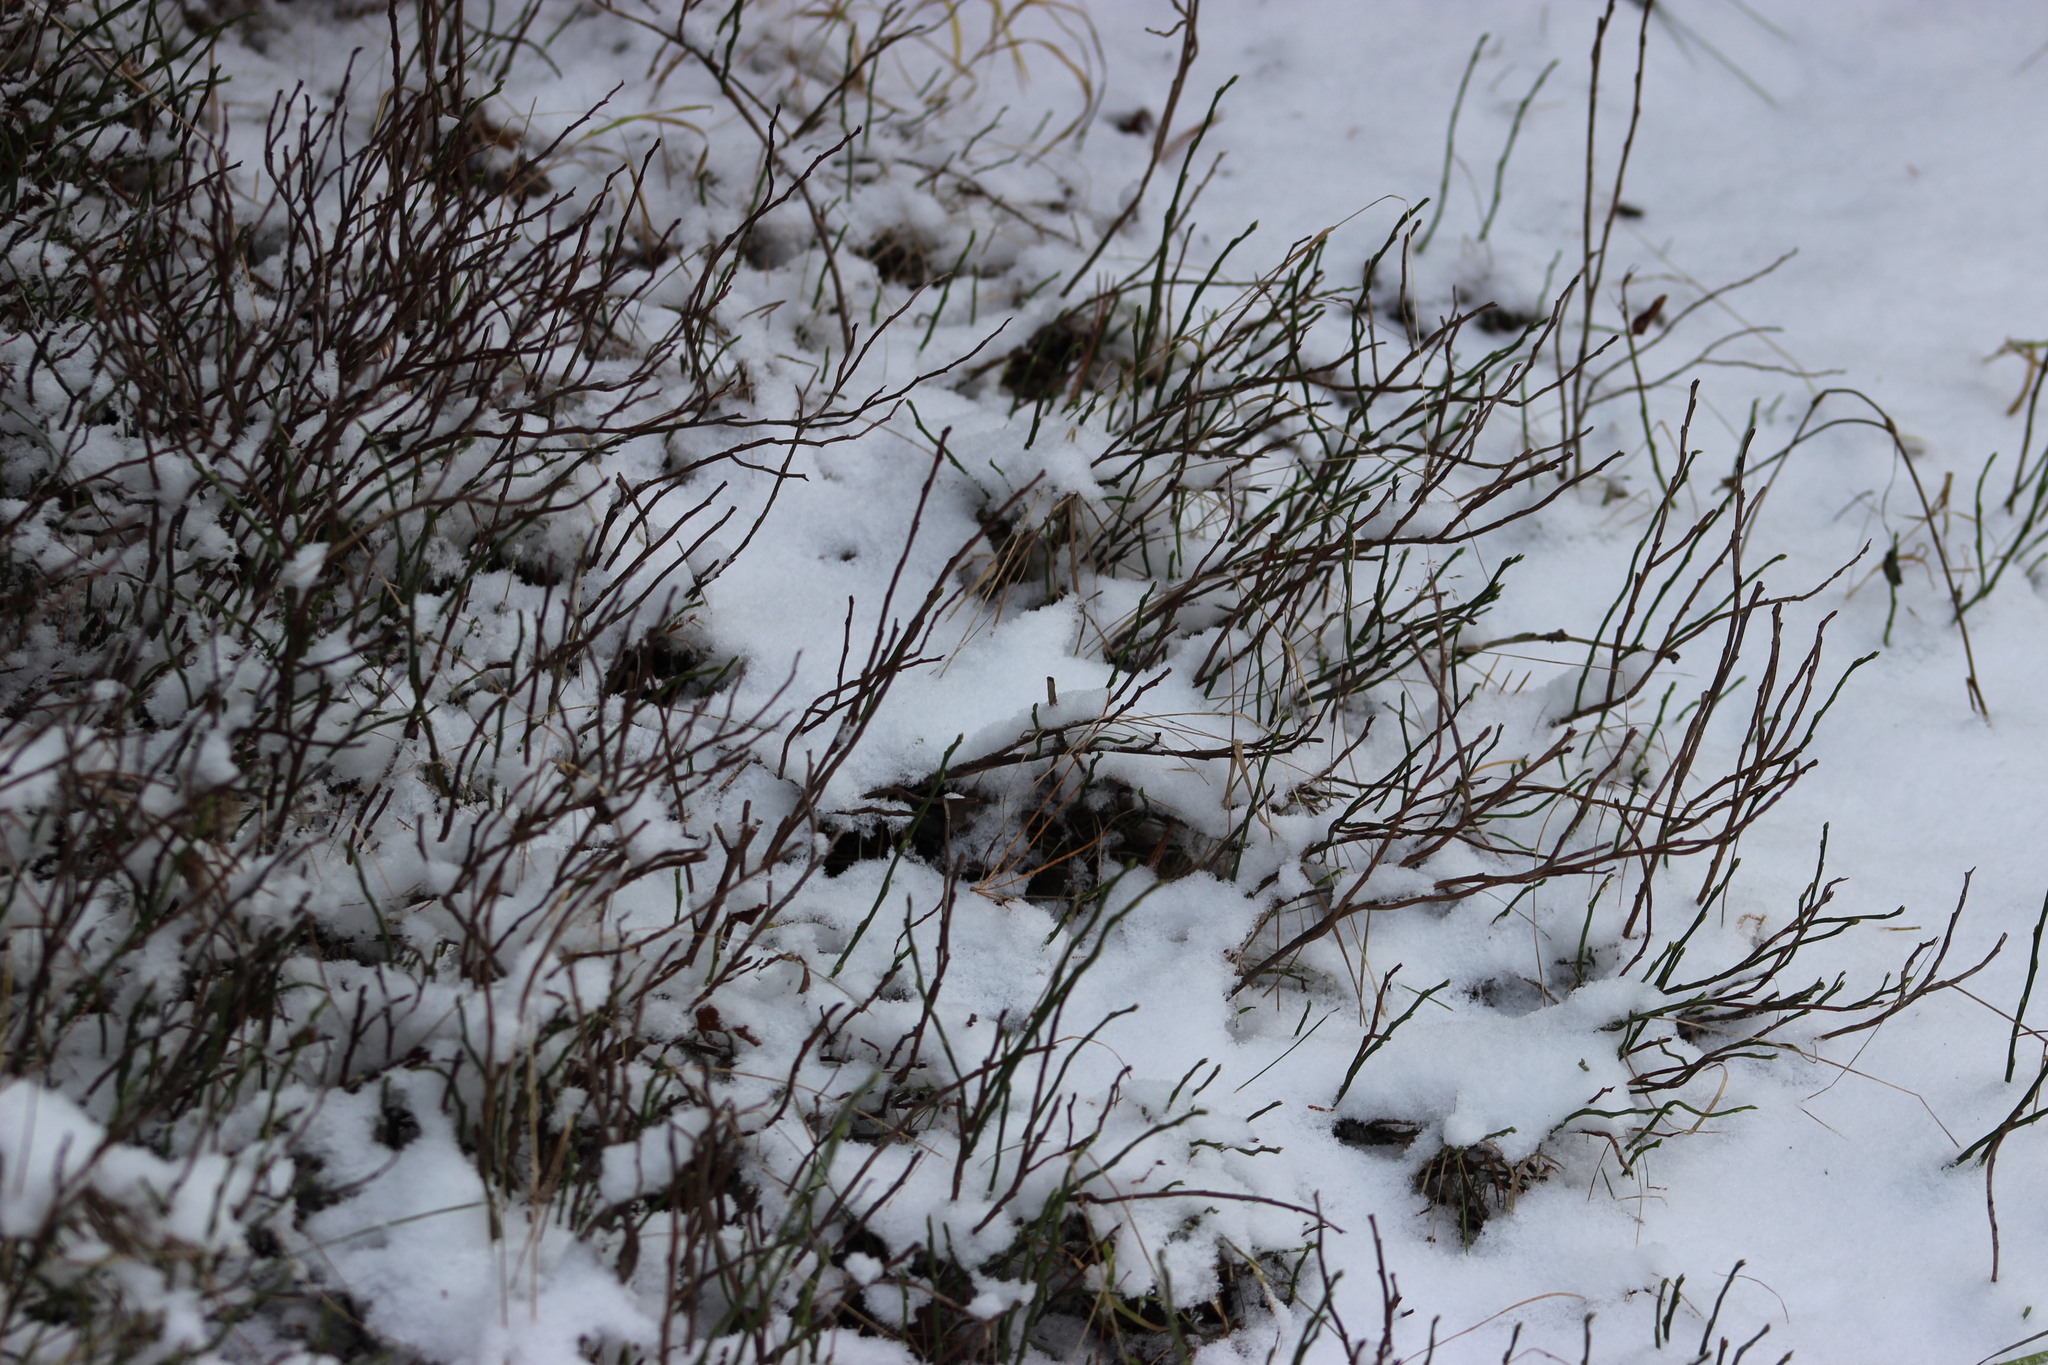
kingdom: Plantae
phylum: Tracheophyta
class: Magnoliopsida
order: Ericales
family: Ericaceae
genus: Vaccinium
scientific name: Vaccinium myrtillus
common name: Bilberry
